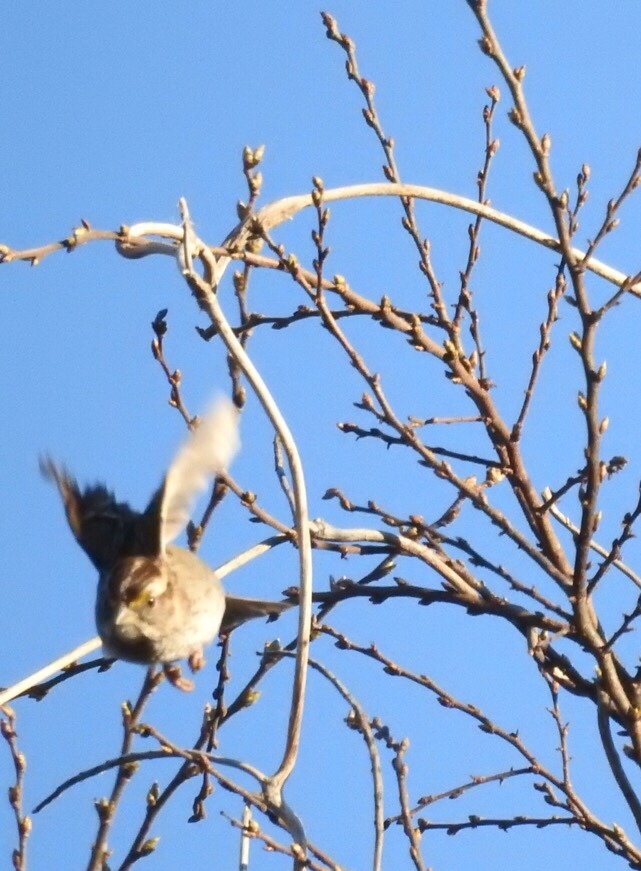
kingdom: Animalia
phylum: Chordata
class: Aves
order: Passeriformes
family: Passerellidae
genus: Zonotrichia
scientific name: Zonotrichia albicollis
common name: White-throated sparrow
